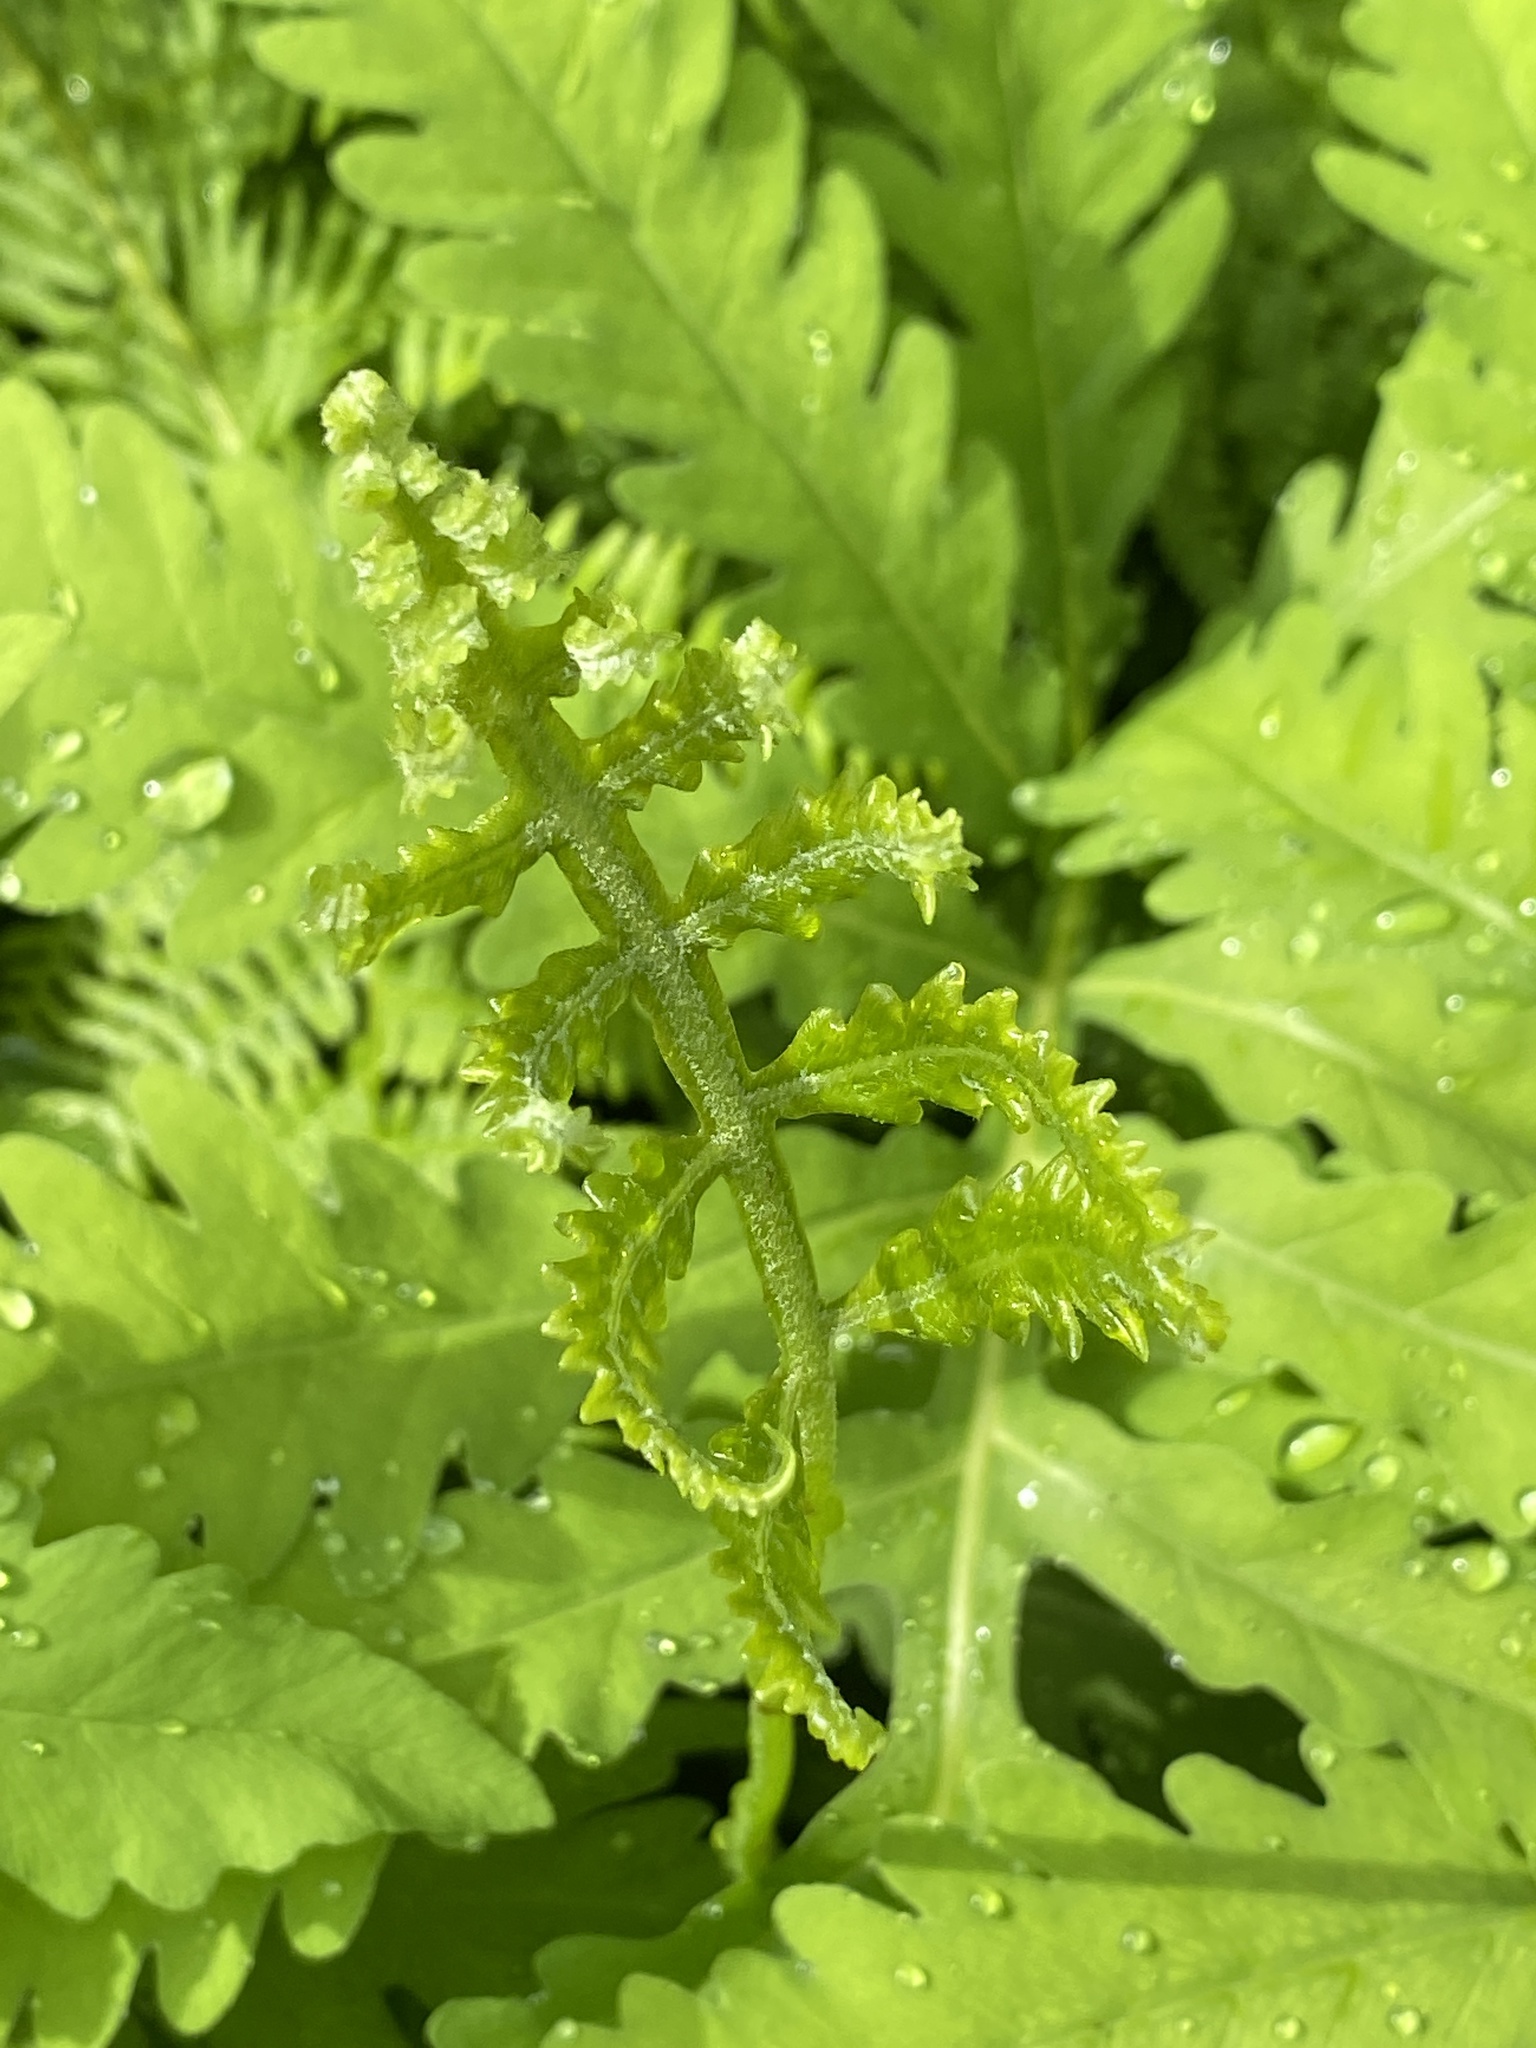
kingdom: Plantae
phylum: Tracheophyta
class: Polypodiopsida
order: Polypodiales
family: Onocleaceae
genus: Onoclea
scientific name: Onoclea sensibilis
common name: Sensitive fern
